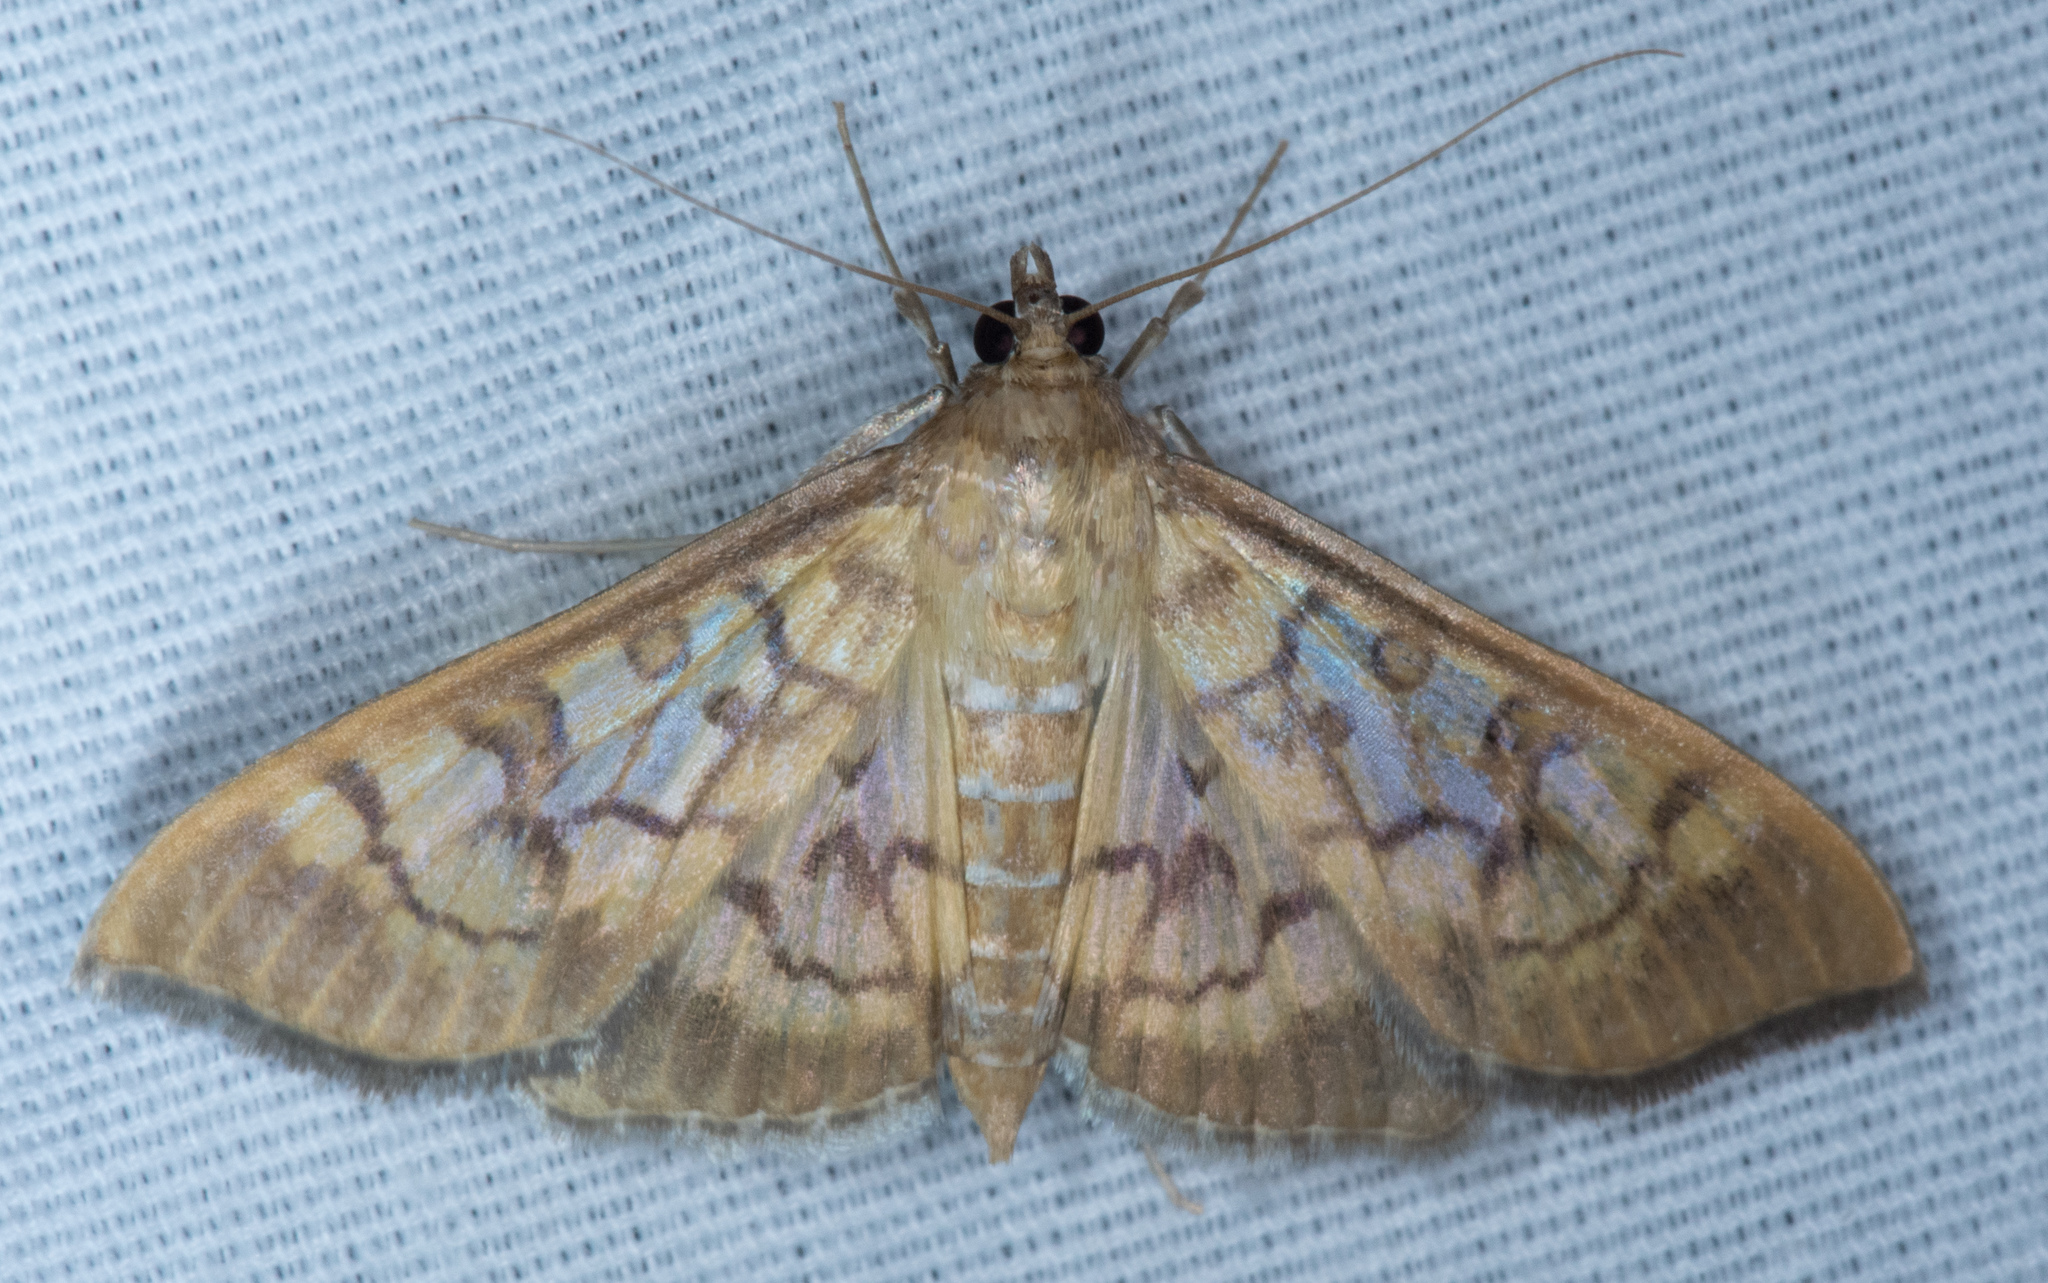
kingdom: Animalia
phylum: Arthropoda
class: Insecta
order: Lepidoptera
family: Crambidae
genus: Mimorista
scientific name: Mimorista subcostalis
